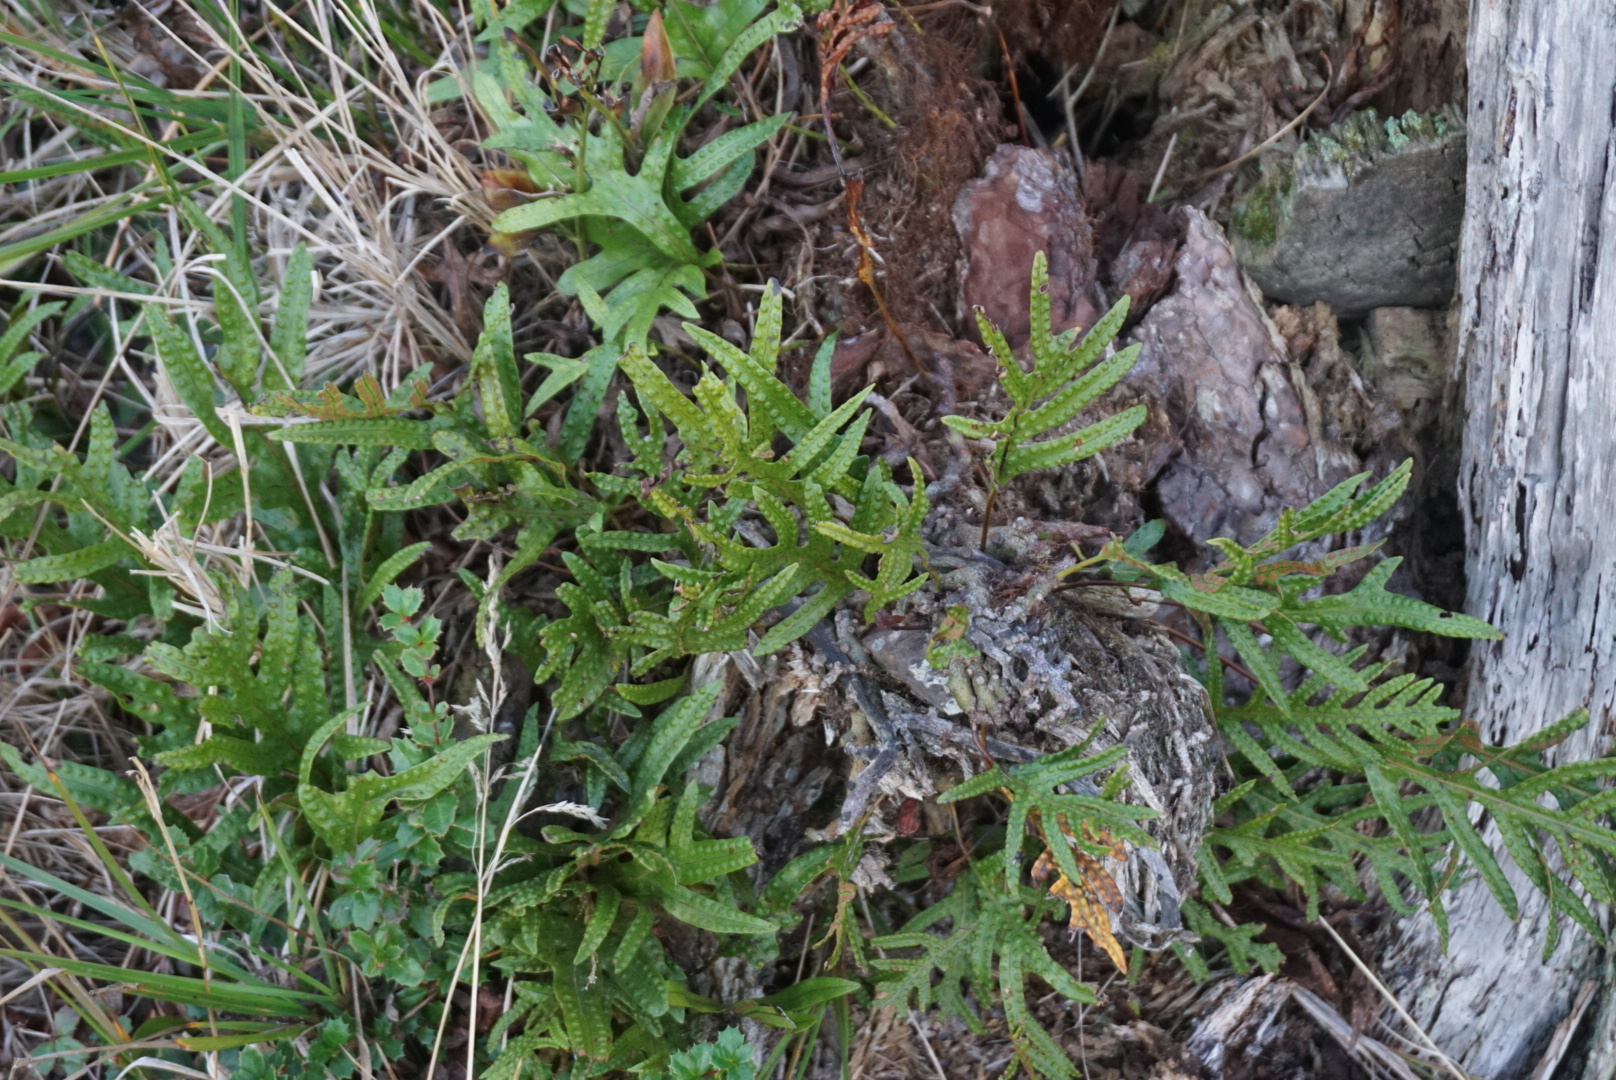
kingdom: Plantae
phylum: Tracheophyta
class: Polypodiopsida
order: Polypodiales
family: Polypodiaceae
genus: Lecanopteris
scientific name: Lecanopteris pustulata
